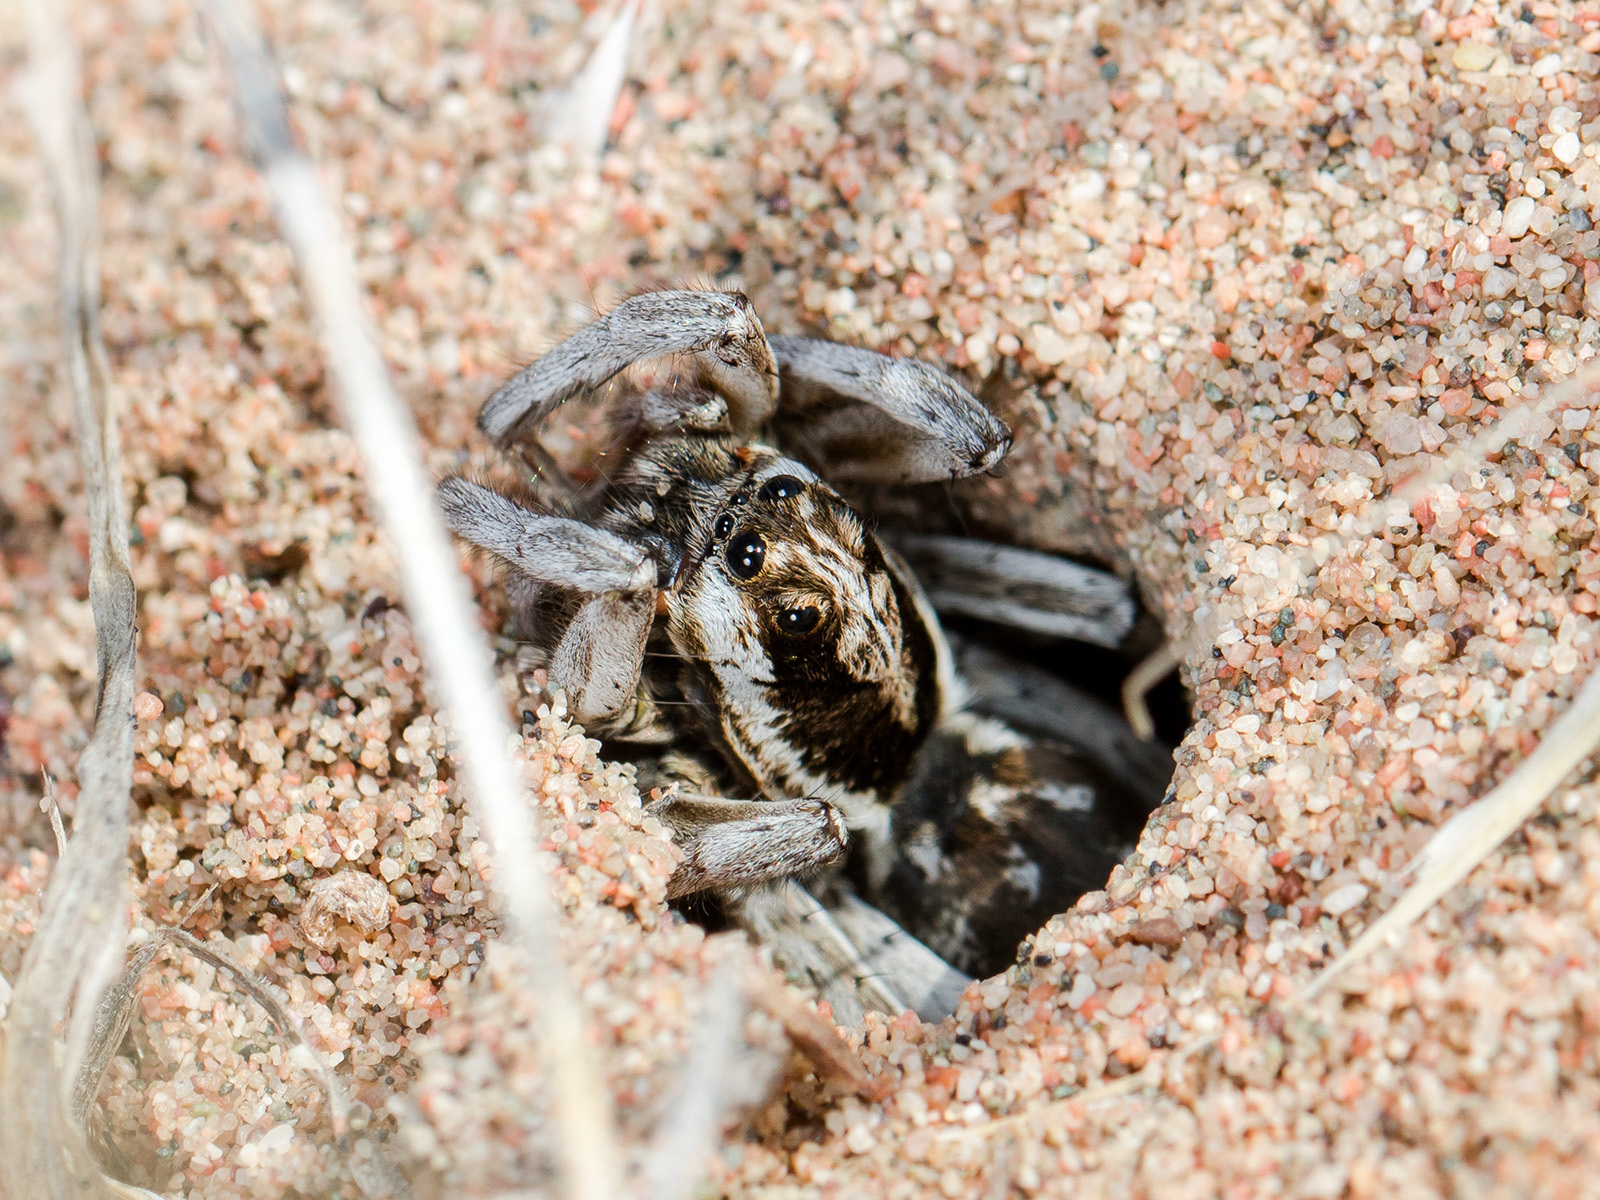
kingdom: Animalia
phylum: Arthropoda
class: Arachnida
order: Araneae
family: Lycosidae
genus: Alopecosa
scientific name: Alopecosa marikovskyi
